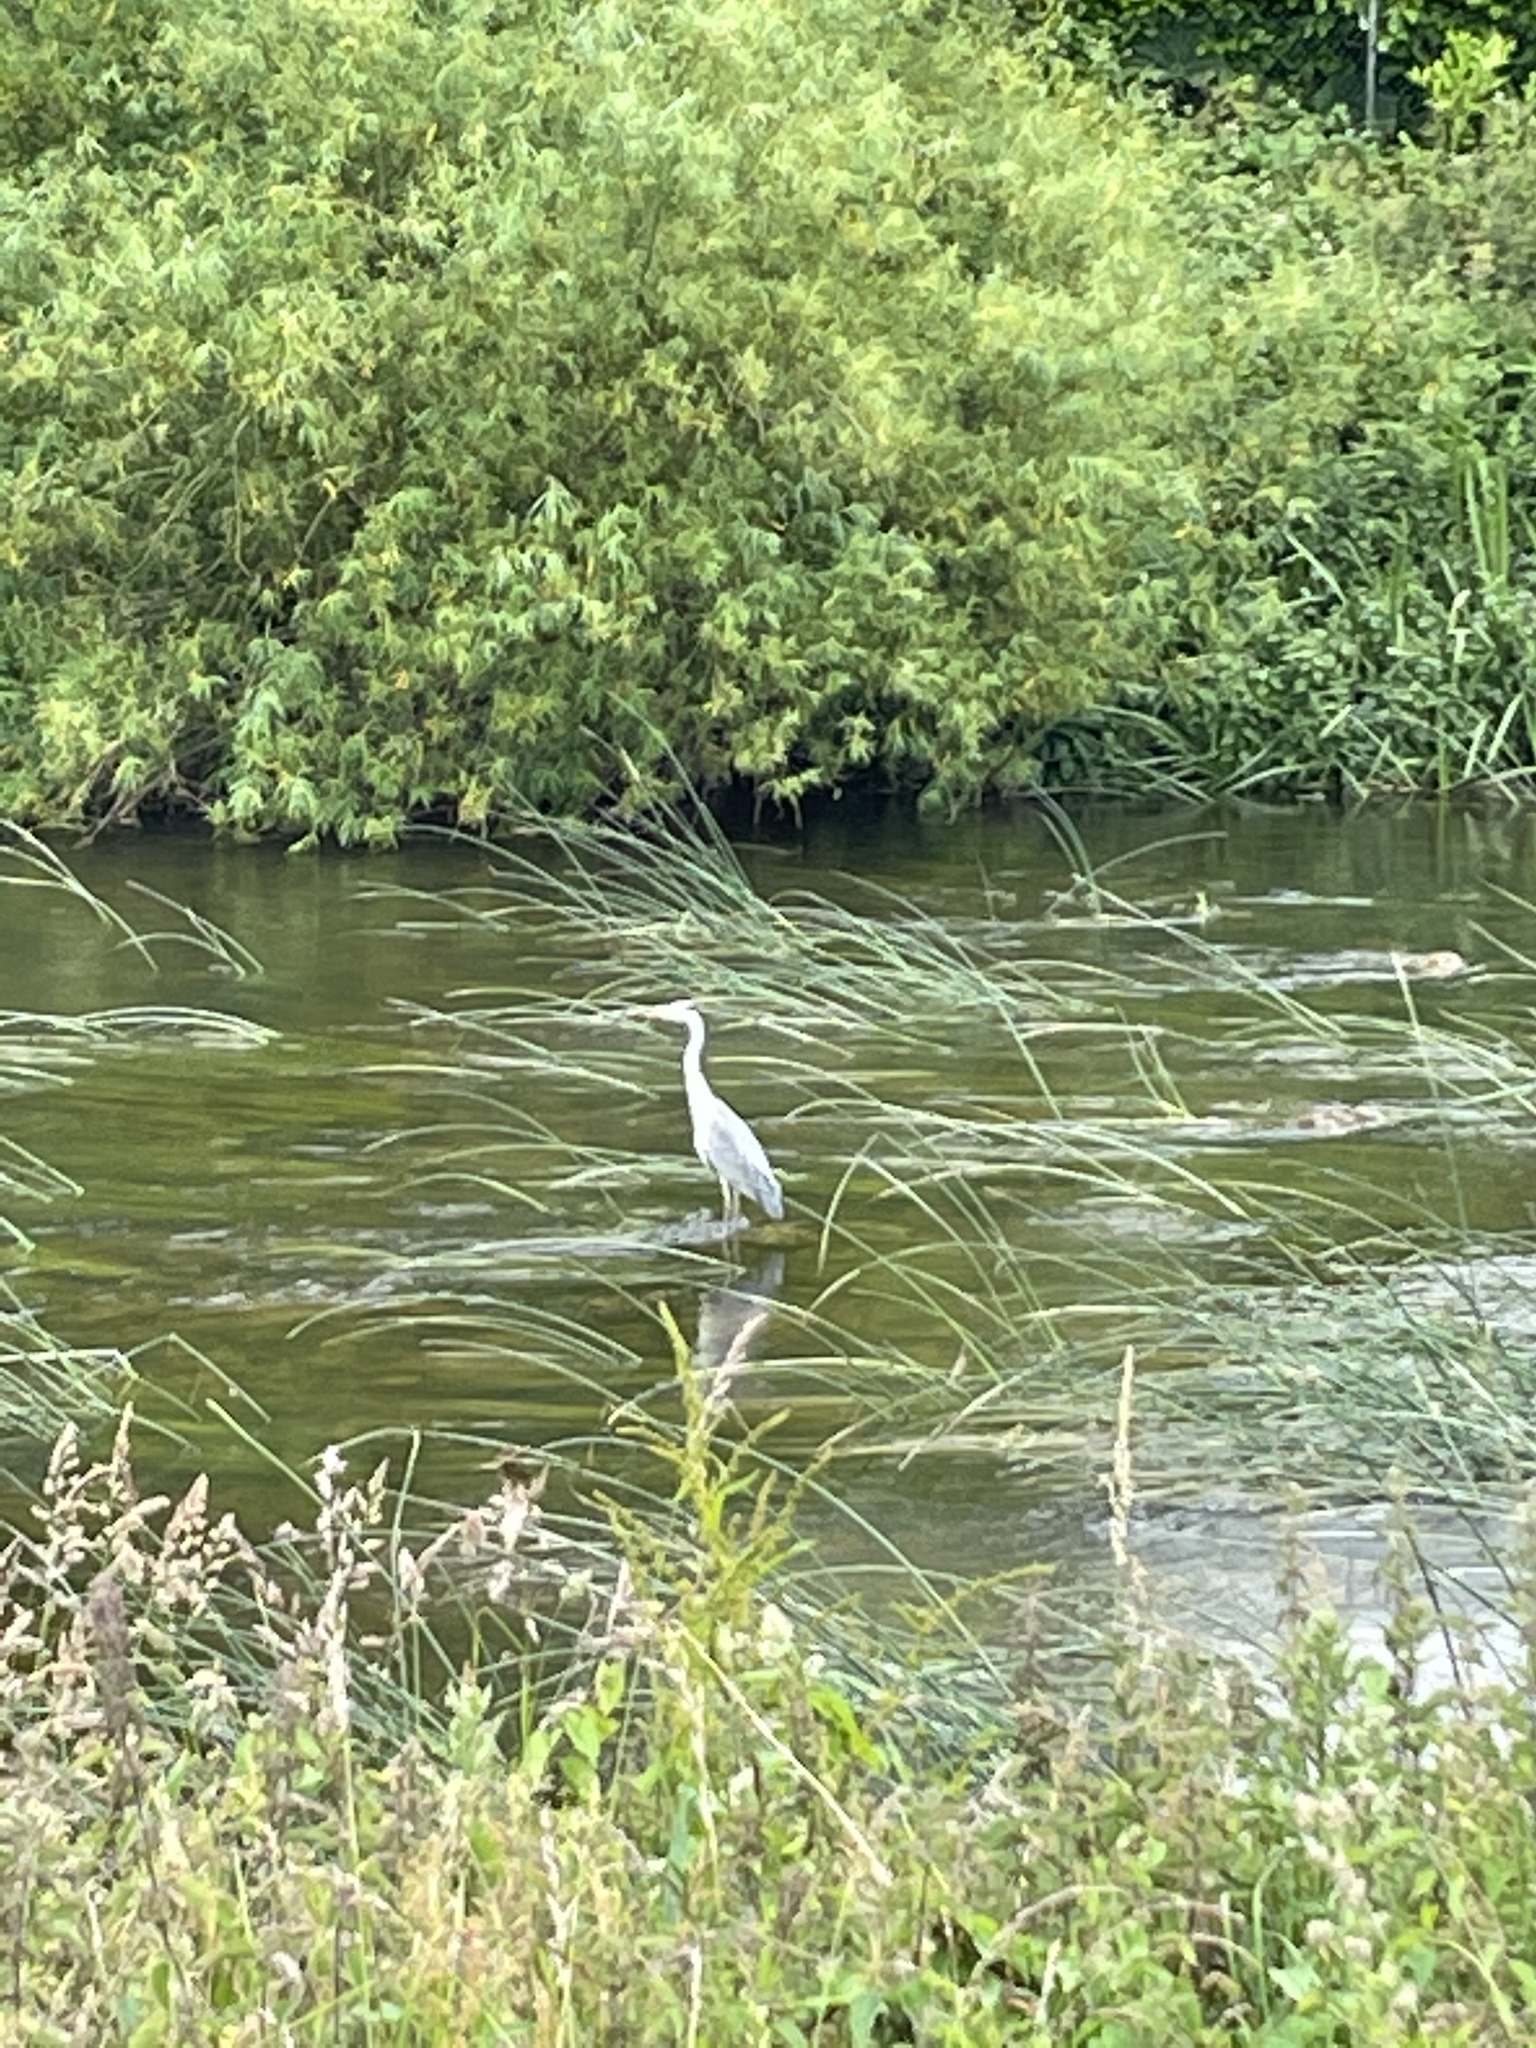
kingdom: Animalia
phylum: Chordata
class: Aves
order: Pelecaniformes
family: Ardeidae
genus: Ardea
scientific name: Ardea cinerea
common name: Grey heron
